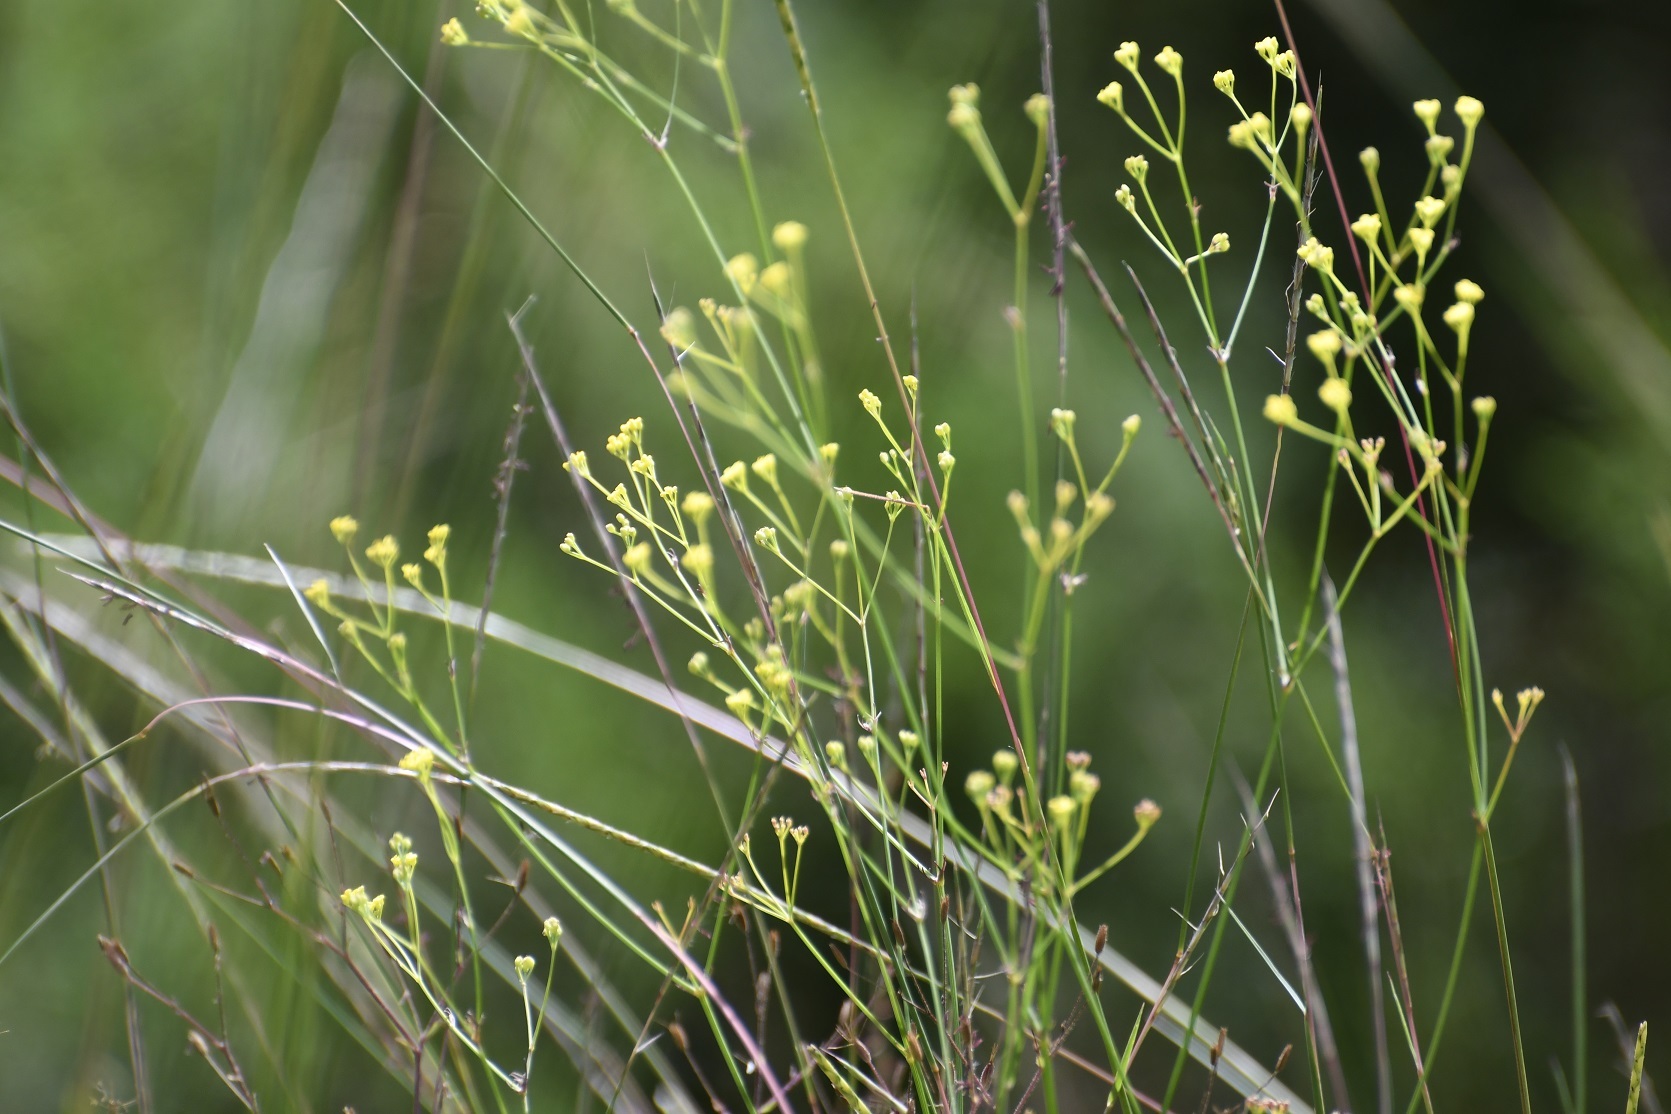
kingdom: Plantae
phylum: Tracheophyta
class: Magnoliopsida
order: Apiales
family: Apiaceae
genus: Donnellsmithia
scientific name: Donnellsmithia juncea
